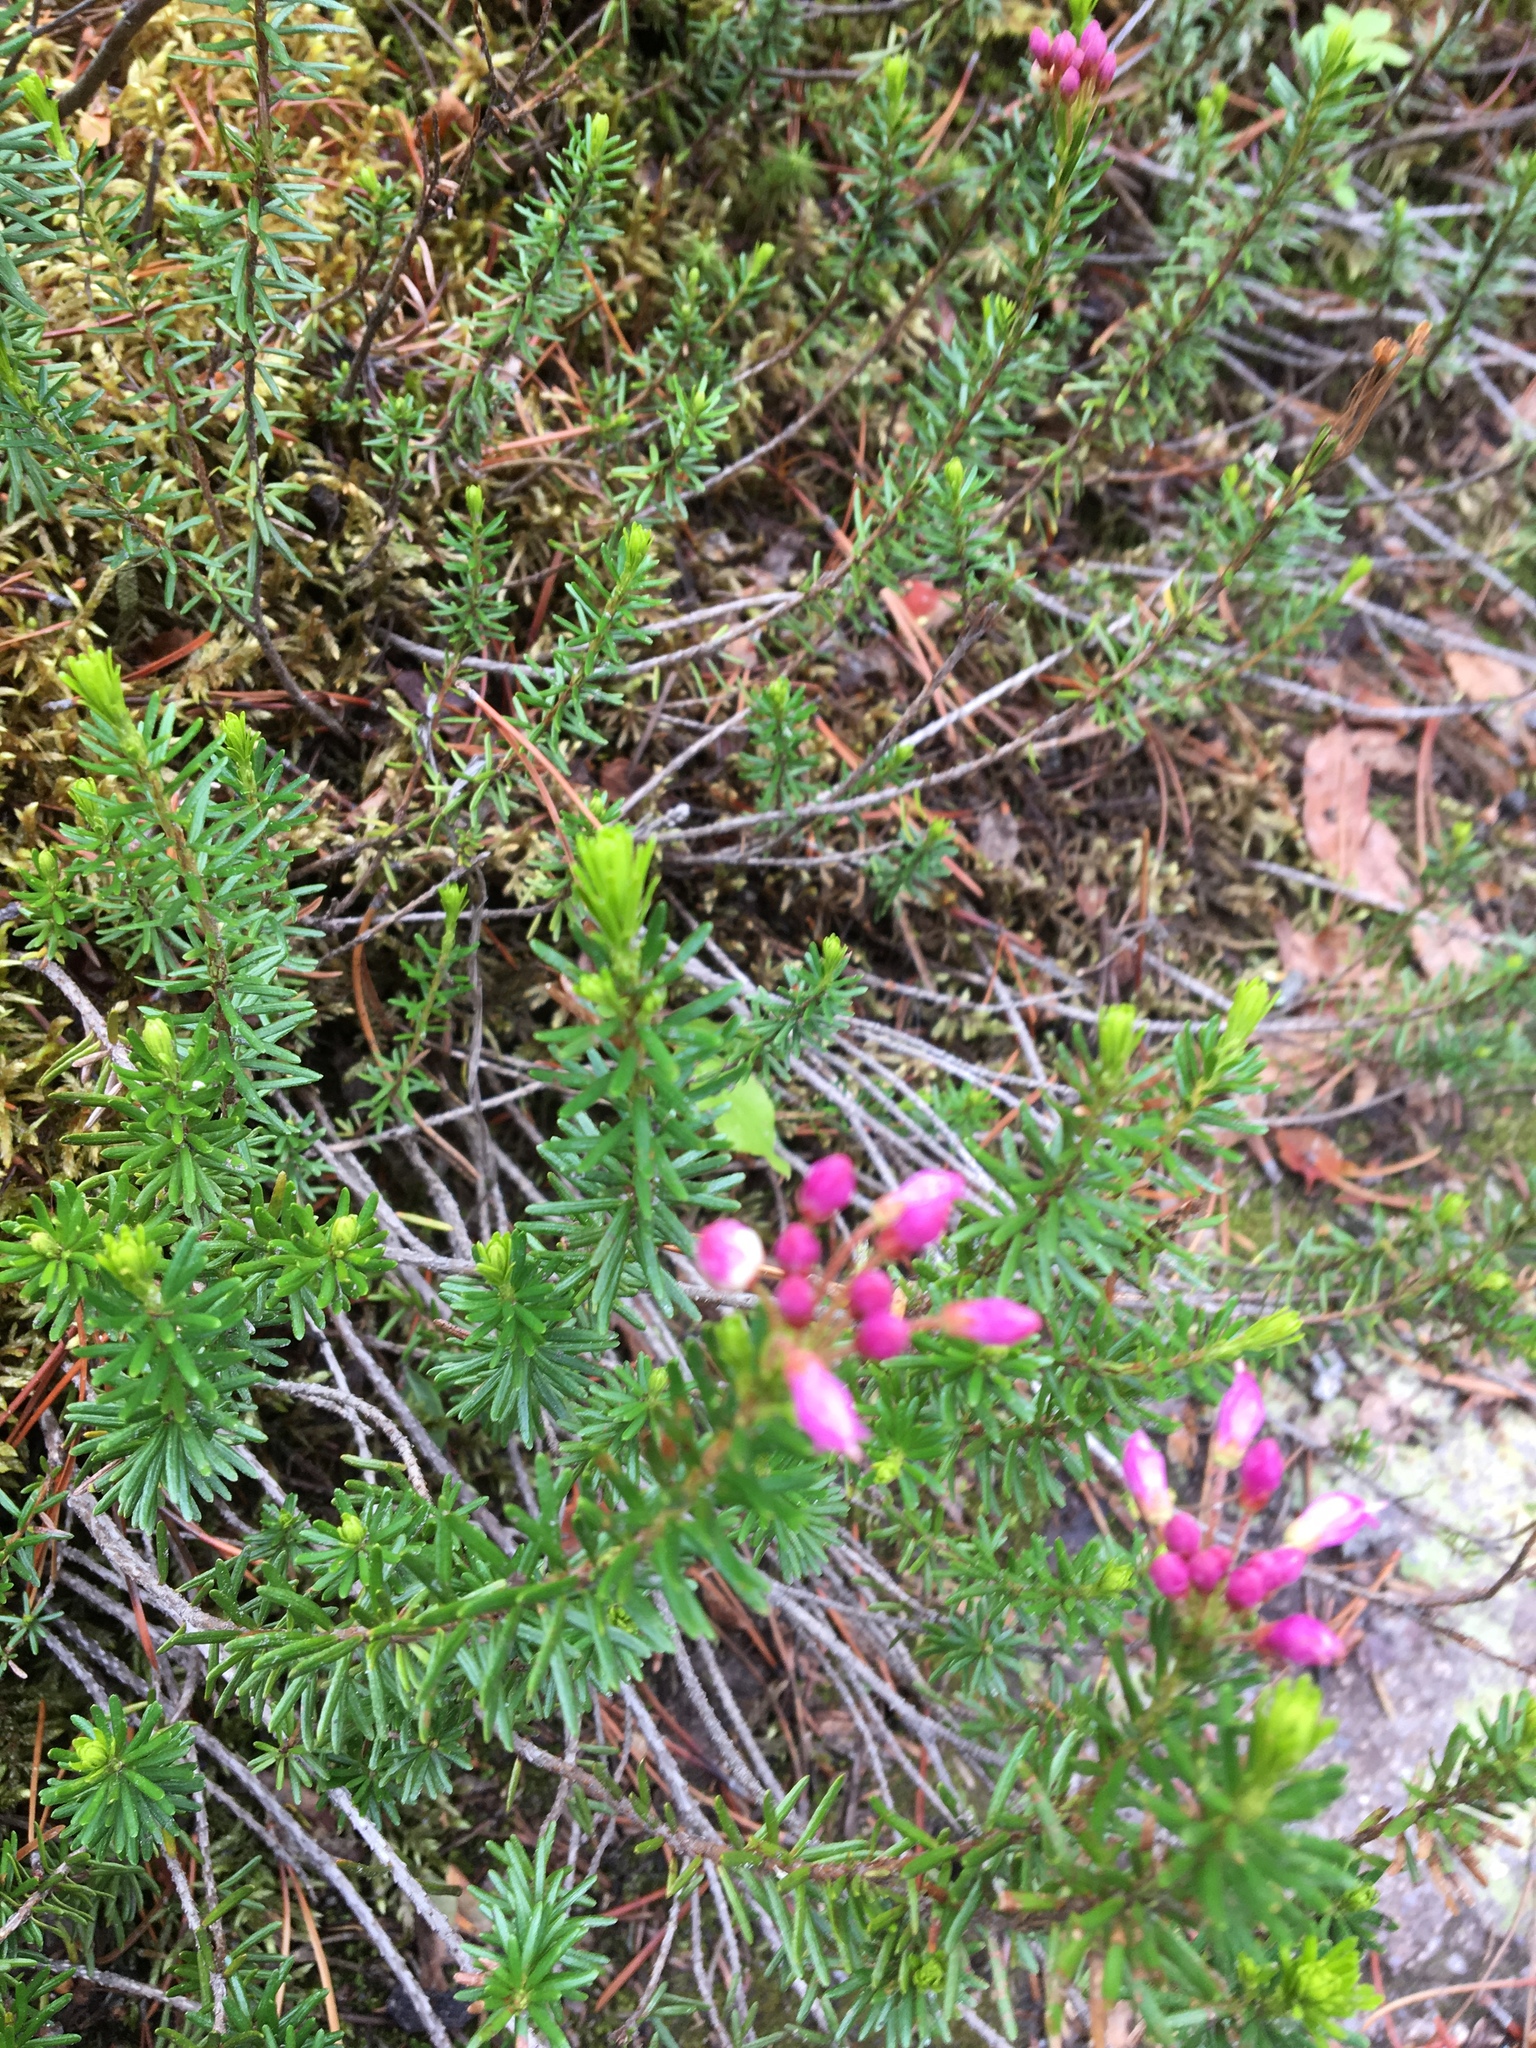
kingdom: Plantae
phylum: Tracheophyta
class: Magnoliopsida
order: Ericales
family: Ericaceae
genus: Phyllodoce
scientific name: Phyllodoce empetriformis
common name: Pink mountain heather
